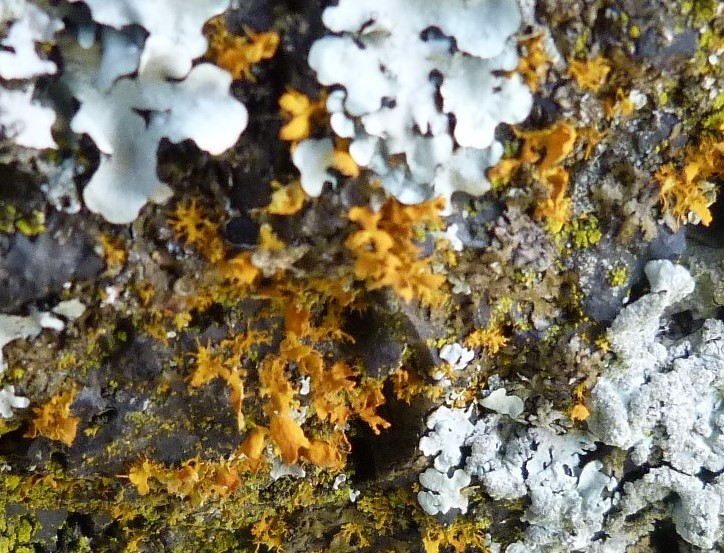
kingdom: Fungi
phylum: Ascomycota
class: Lecanoromycetes
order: Teloschistales
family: Teloschistaceae
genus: Teloschistes
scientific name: Teloschistes velifer
